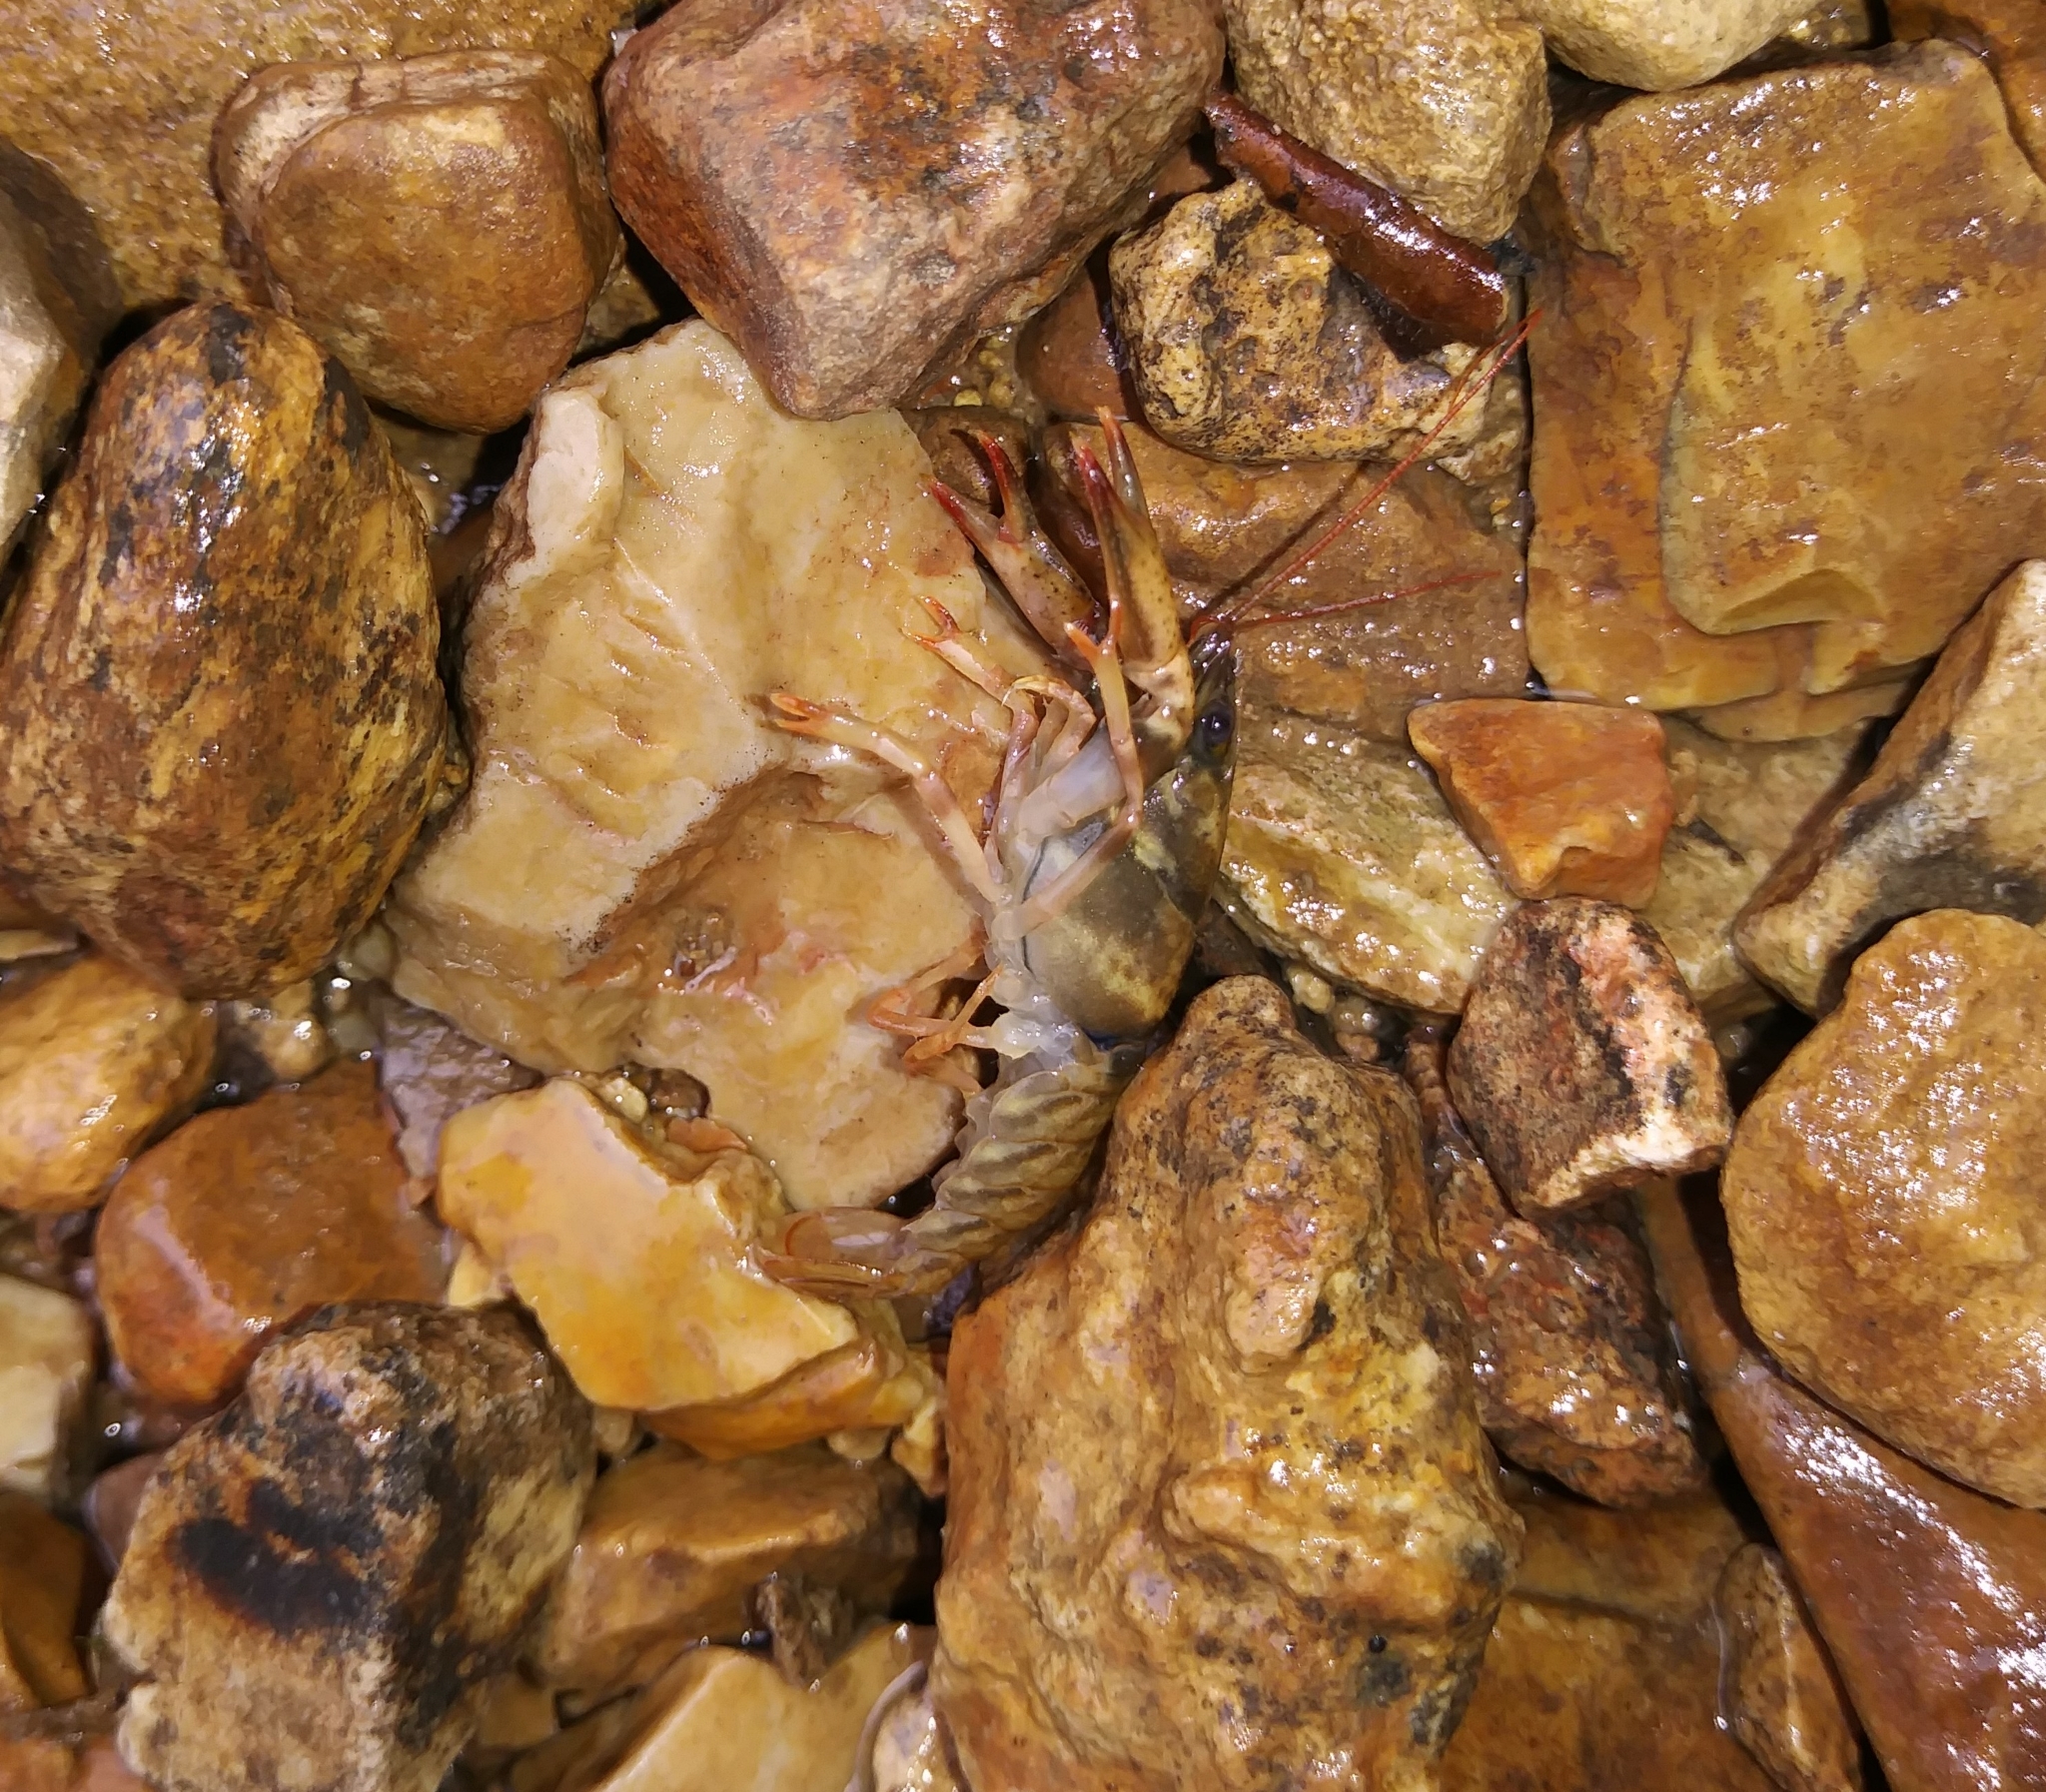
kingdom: Animalia
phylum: Arthropoda
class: Malacostraca
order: Decapoda
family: Cambaridae
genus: Faxonius
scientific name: Faxonius durelli
